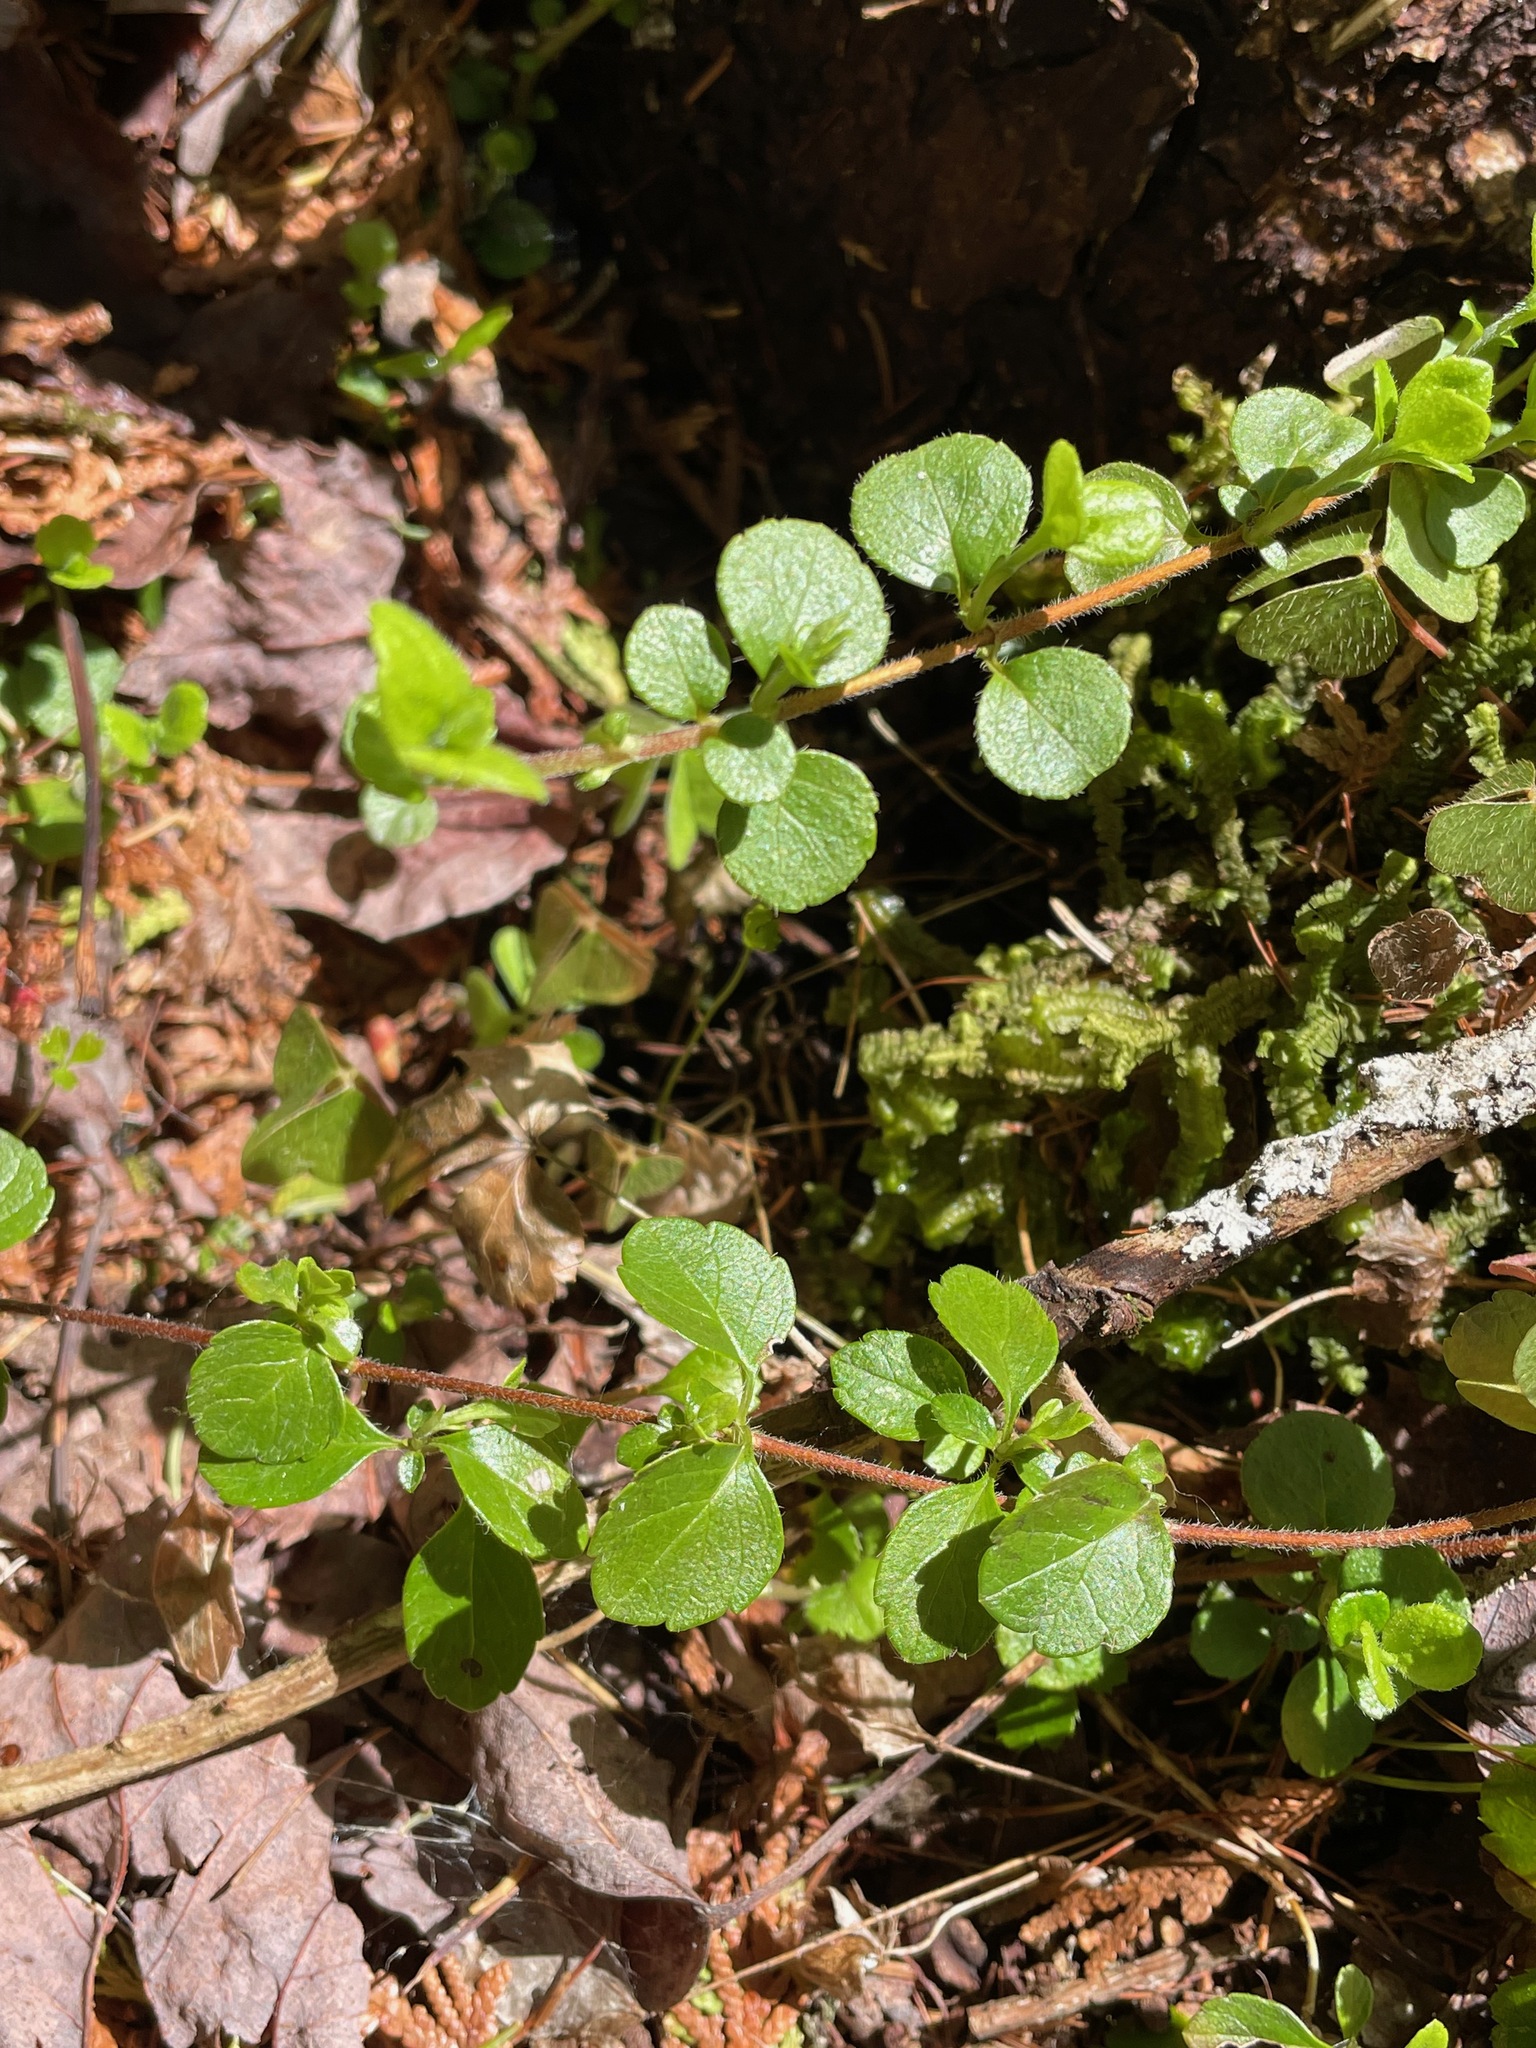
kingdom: Plantae
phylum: Tracheophyta
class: Magnoliopsida
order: Dipsacales
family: Caprifoliaceae
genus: Linnaea
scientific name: Linnaea borealis
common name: Twinflower
